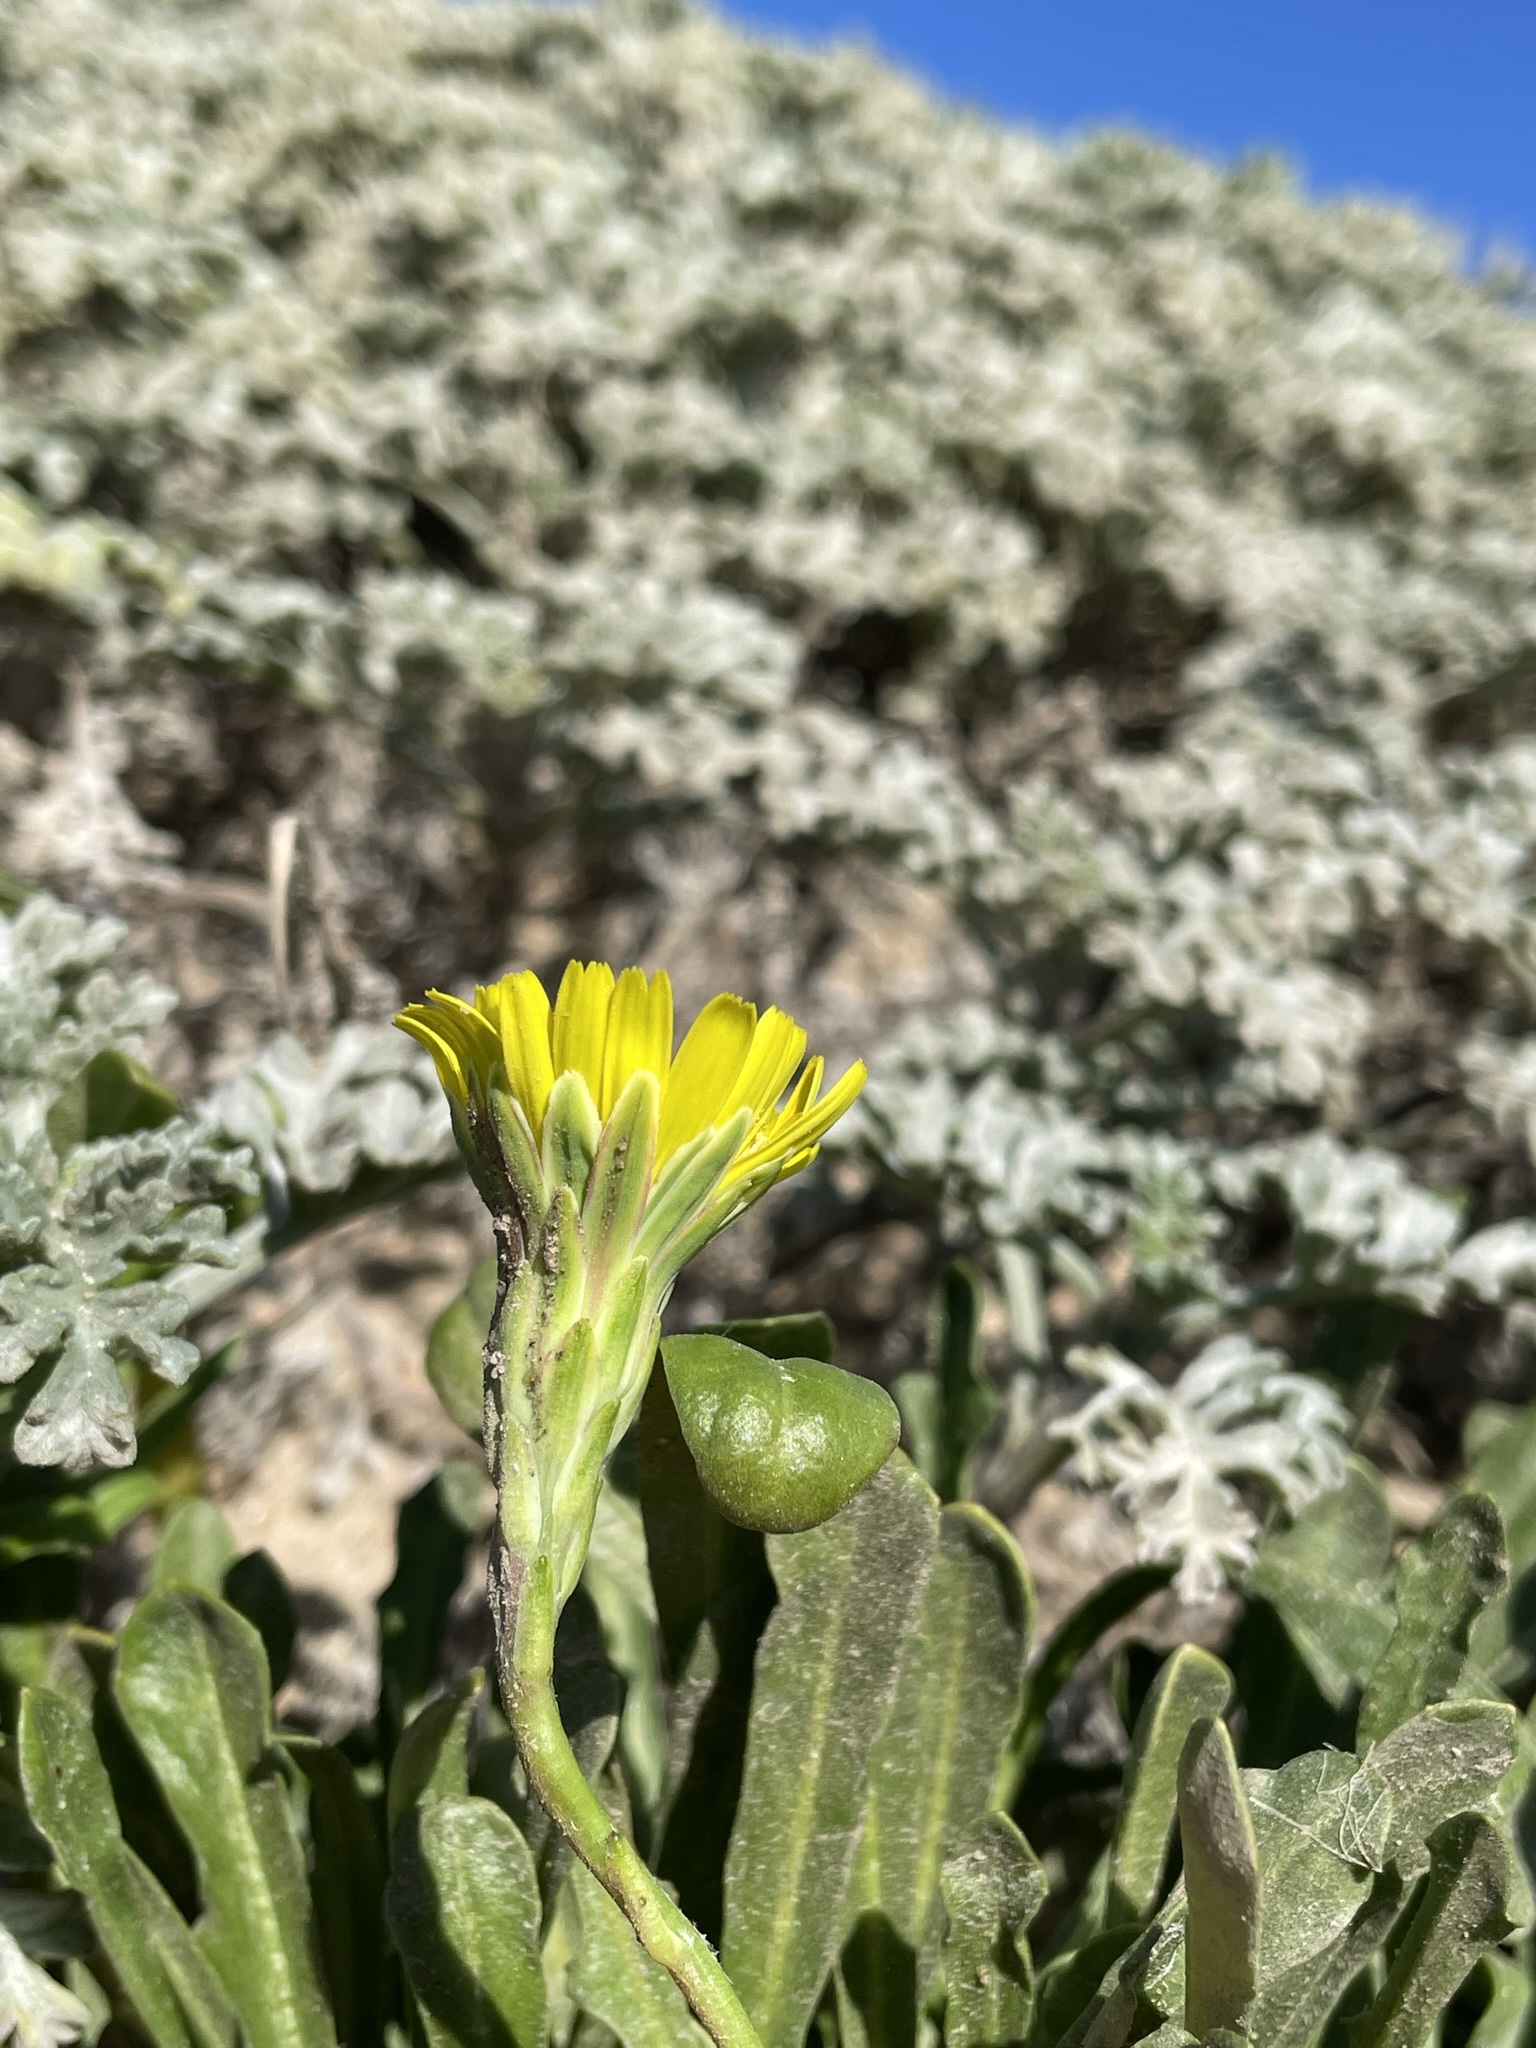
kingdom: Plantae
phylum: Tracheophyta
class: Magnoliopsida
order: Asterales
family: Asteraceae
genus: Malacothrix
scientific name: Malacothrix incana
